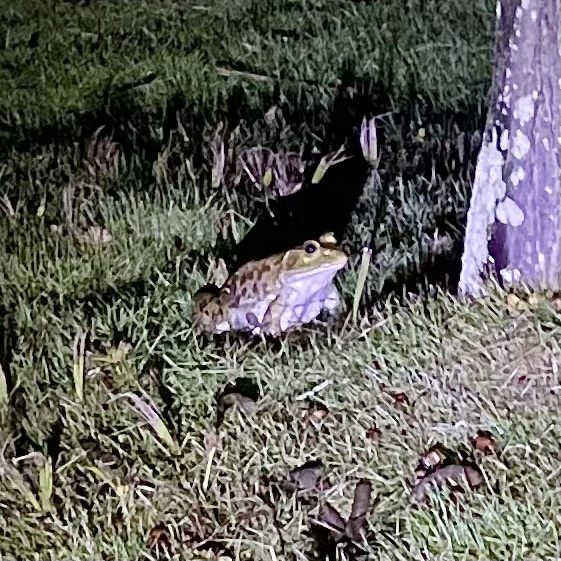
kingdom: Animalia
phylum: Chordata
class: Amphibia
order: Anura
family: Bufonidae
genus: Rhinella
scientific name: Rhinella marina
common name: Cane toad
